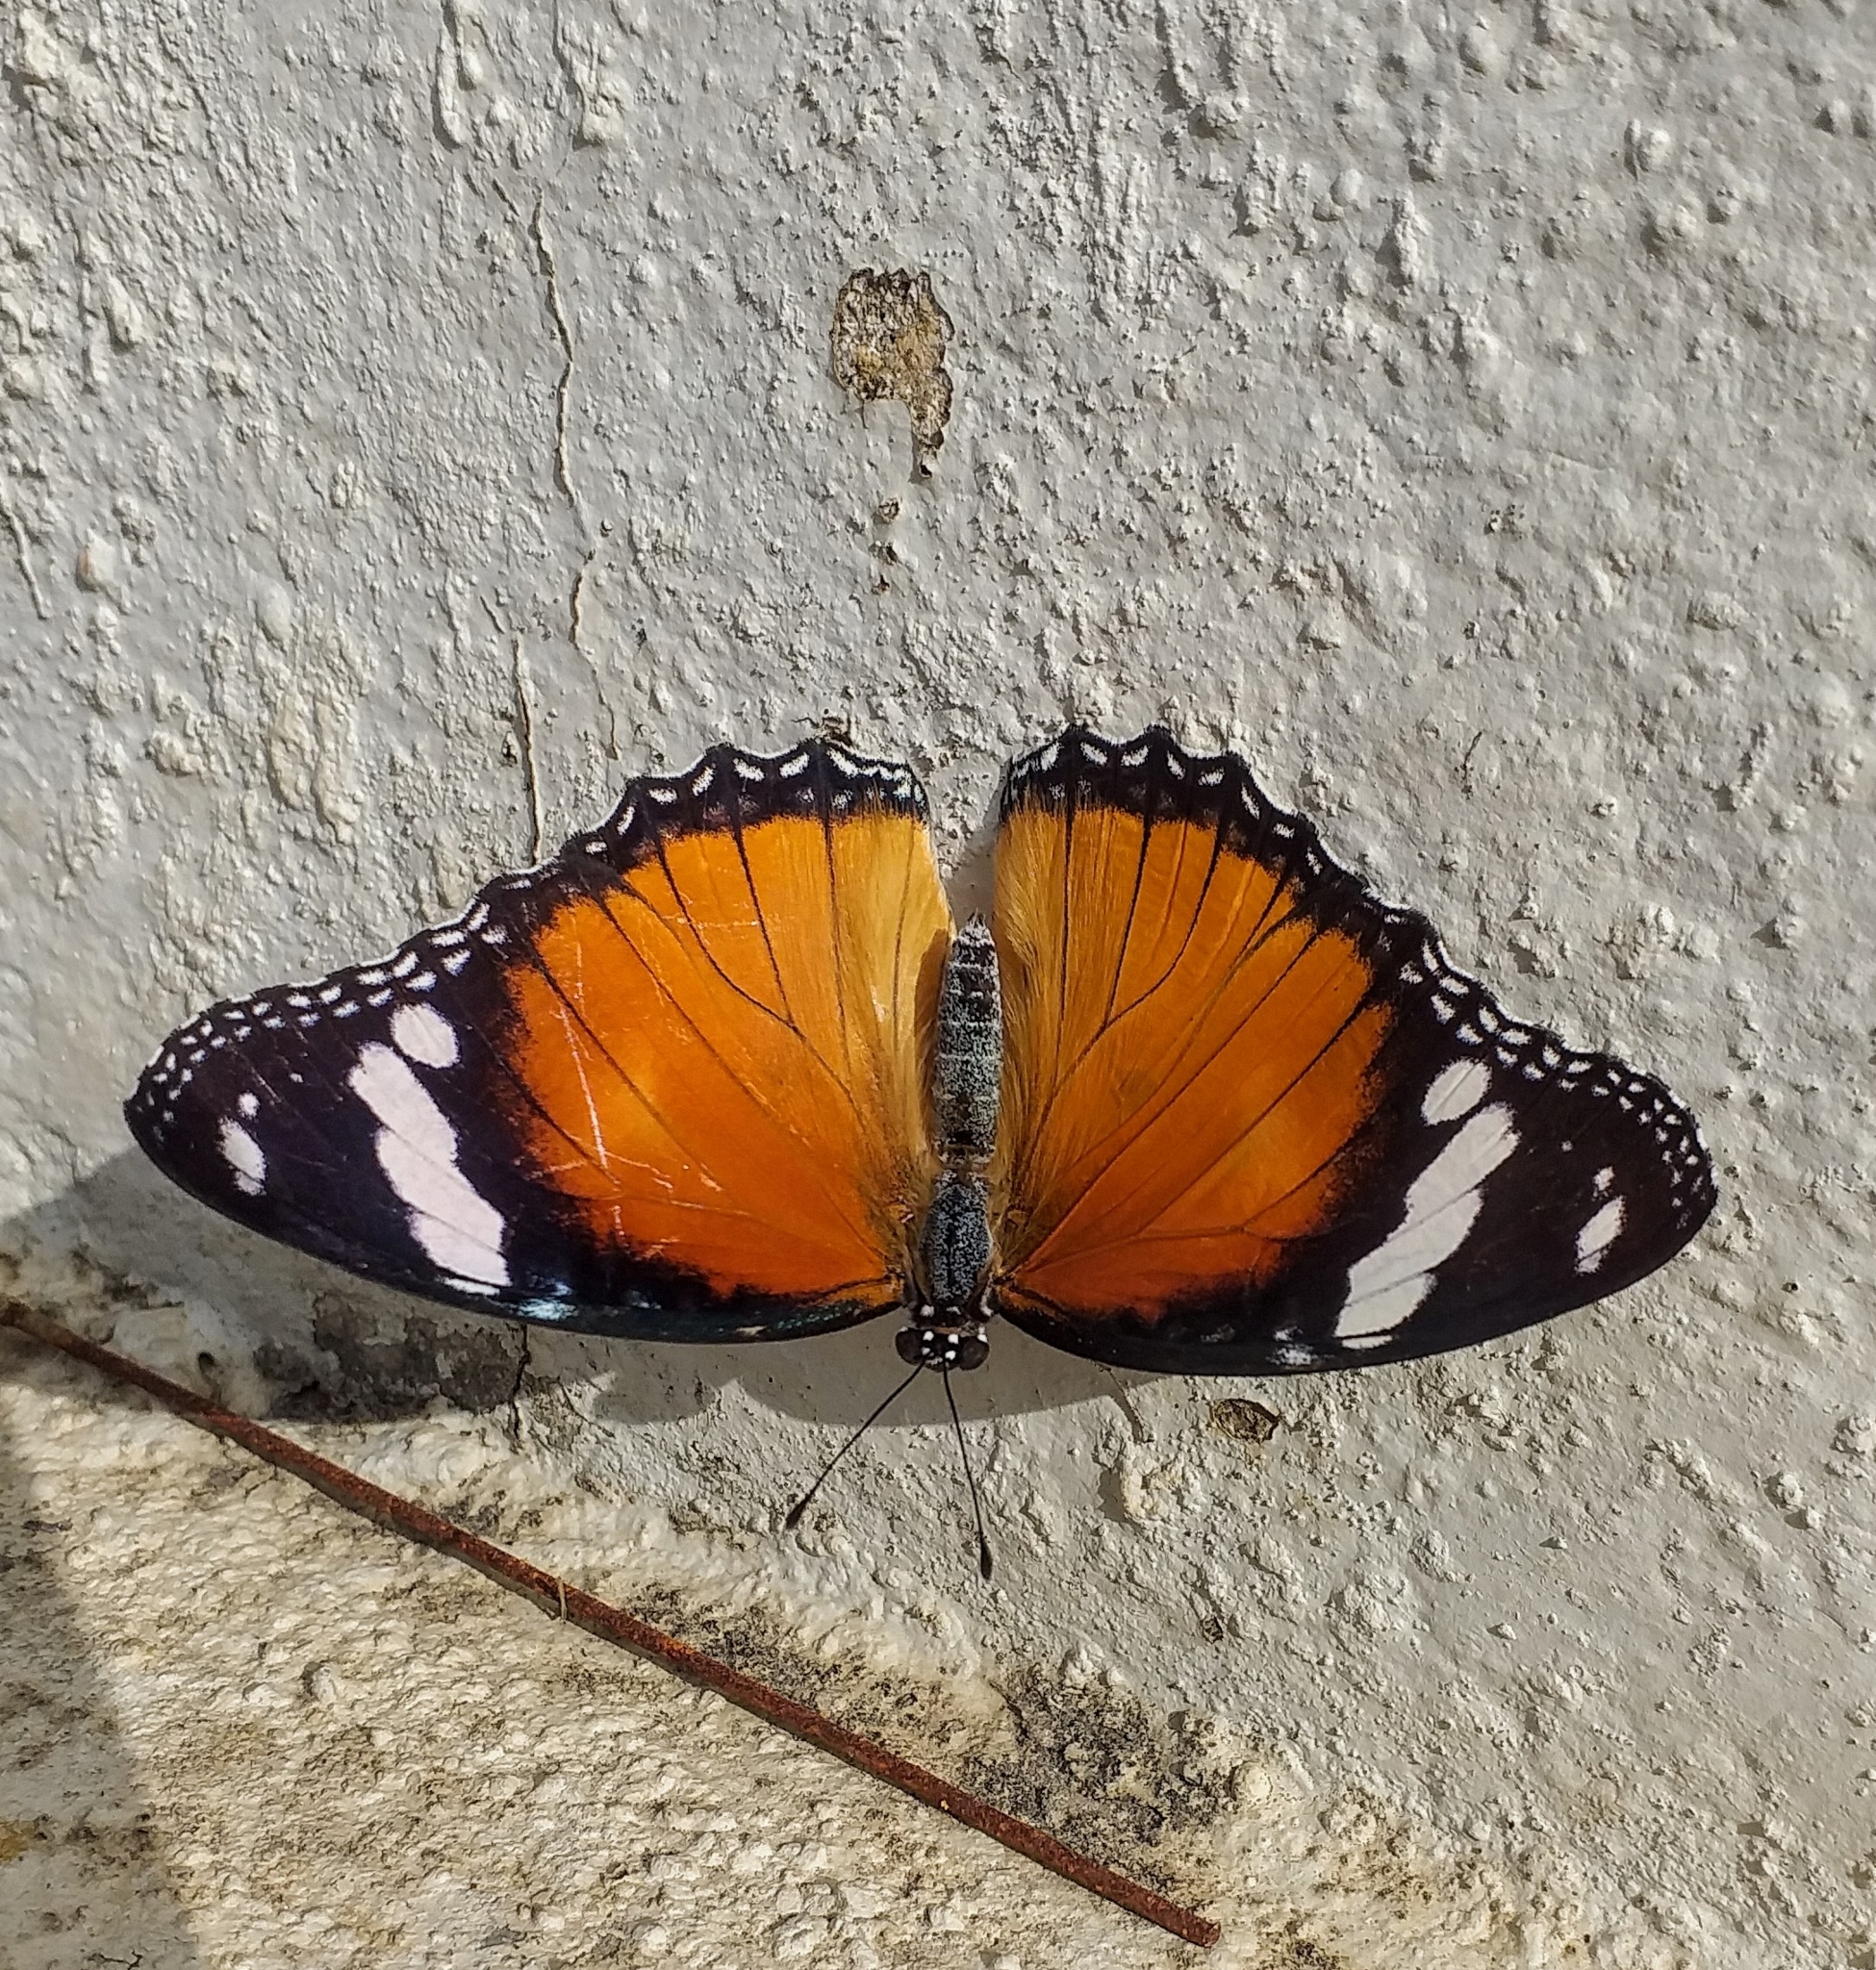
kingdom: Animalia
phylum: Arthropoda
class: Insecta
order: Lepidoptera
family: Nymphalidae
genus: Hypolimnas
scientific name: Hypolimnas misippus
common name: False plain tiger
